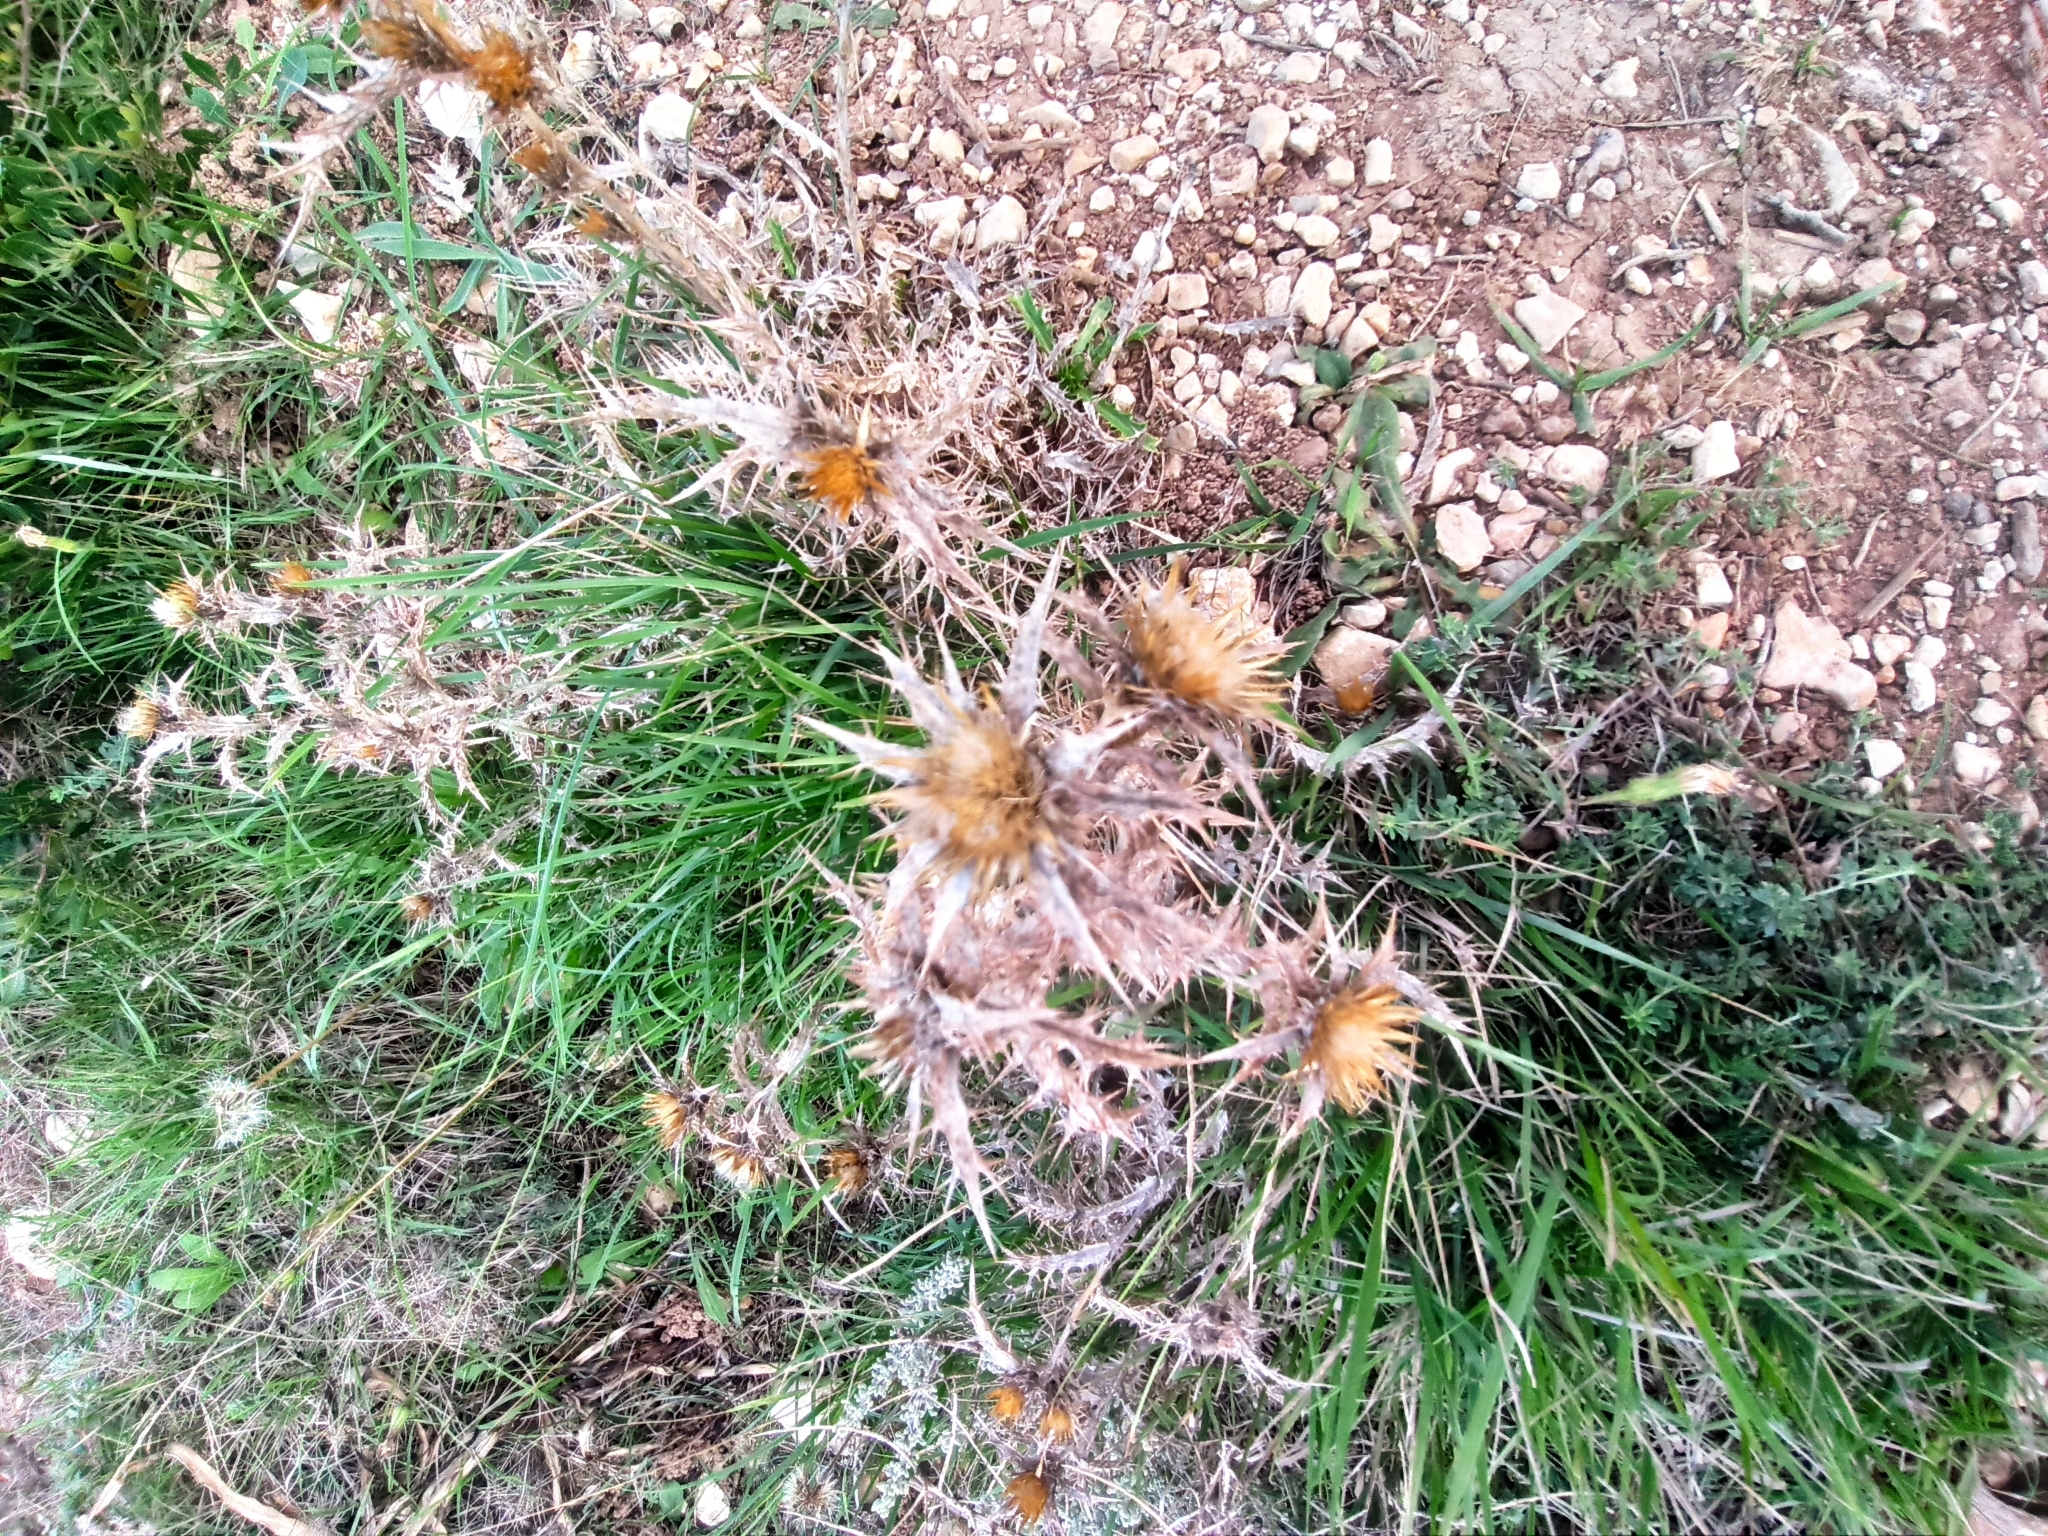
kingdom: Plantae
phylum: Tracheophyta
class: Magnoliopsida
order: Asterales
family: Asteraceae
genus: Carlina
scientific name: Carlina corymbosa
